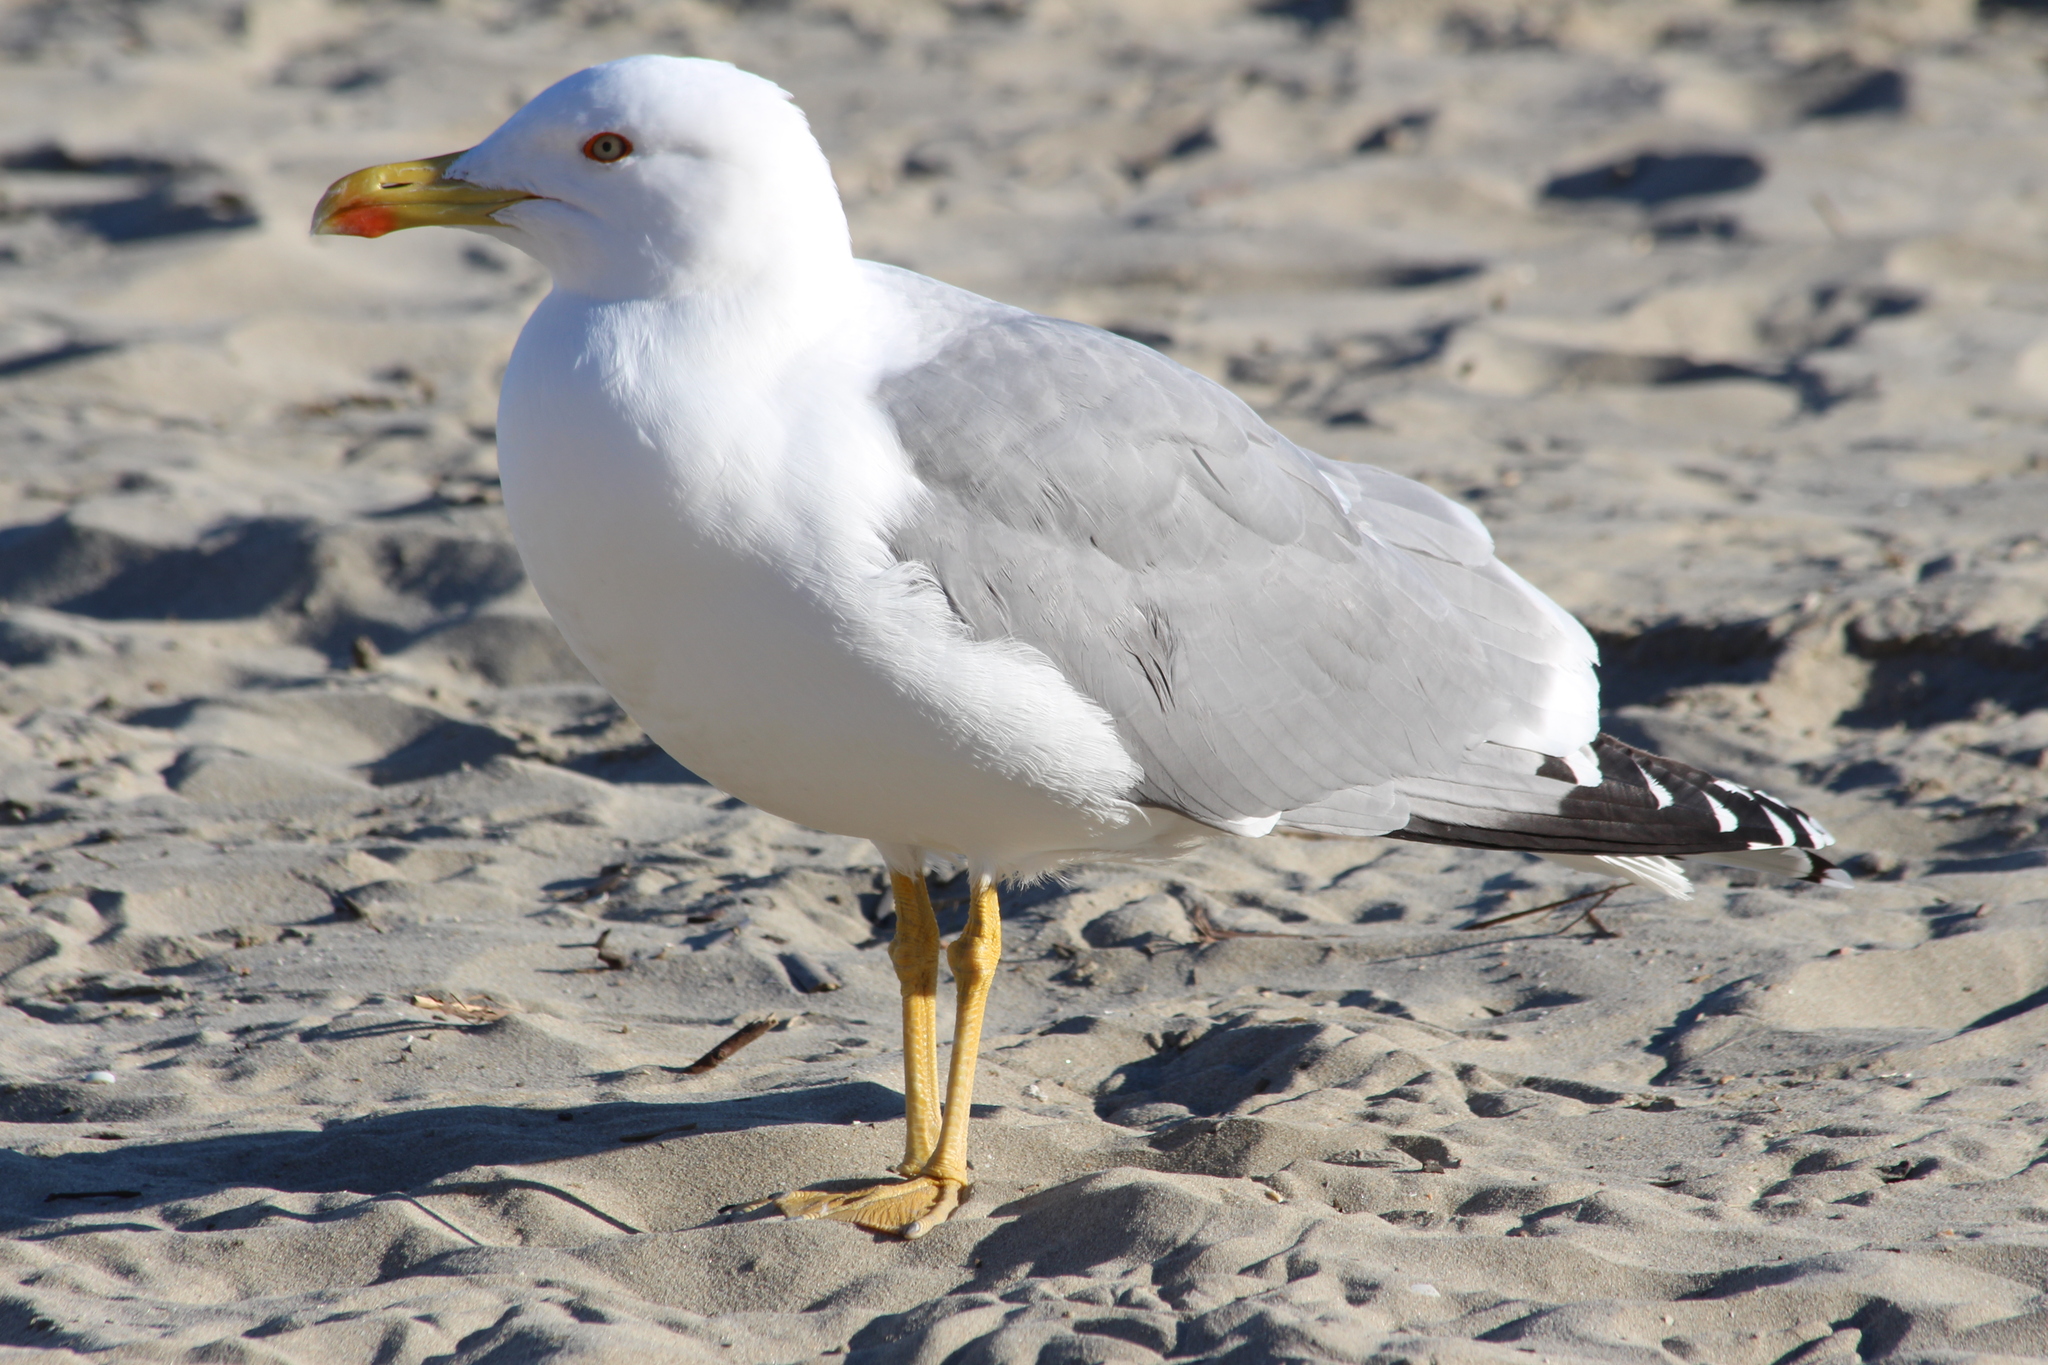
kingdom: Animalia
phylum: Chordata
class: Aves
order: Charadriiformes
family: Laridae
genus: Larus
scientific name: Larus michahellis
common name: Yellow-legged gull
